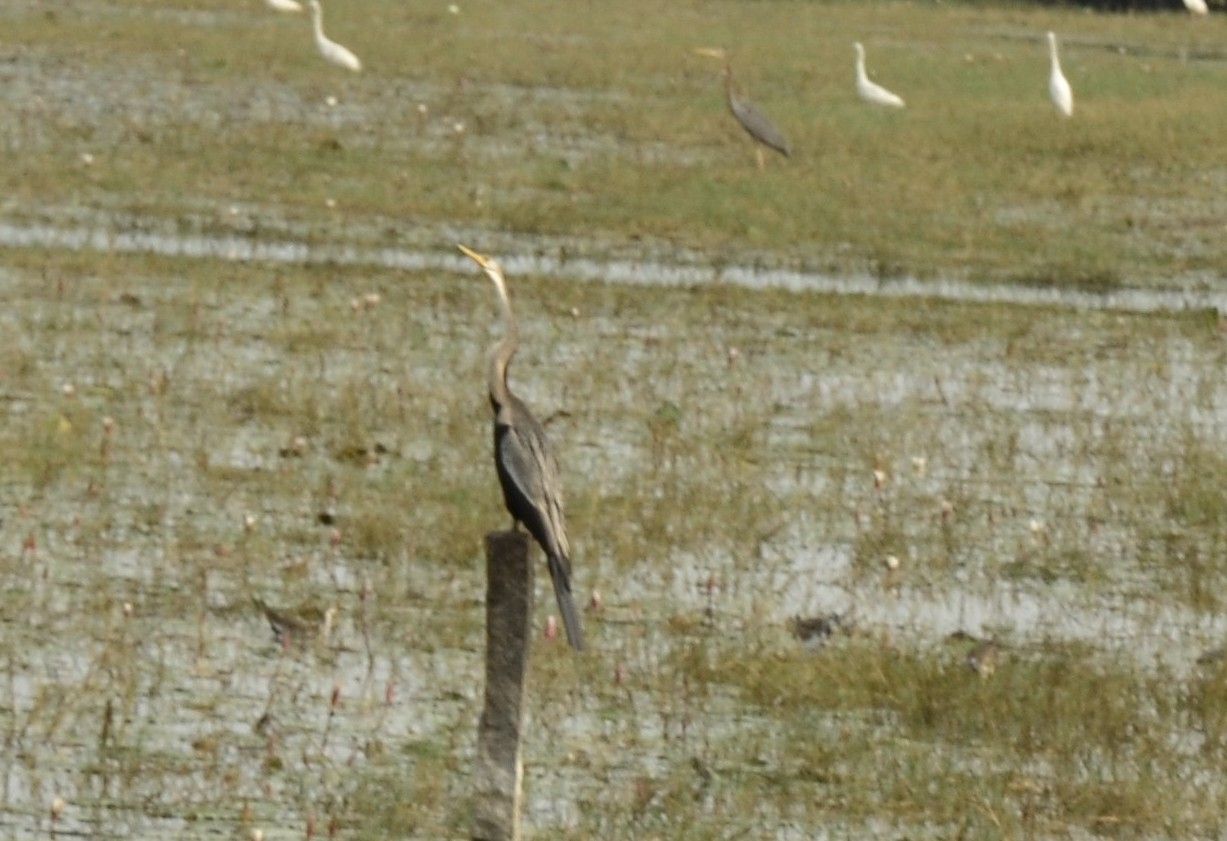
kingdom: Animalia
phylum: Chordata
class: Aves
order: Suliformes
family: Anhingidae
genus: Anhinga
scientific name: Anhinga melanogaster
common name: Oriental darter
